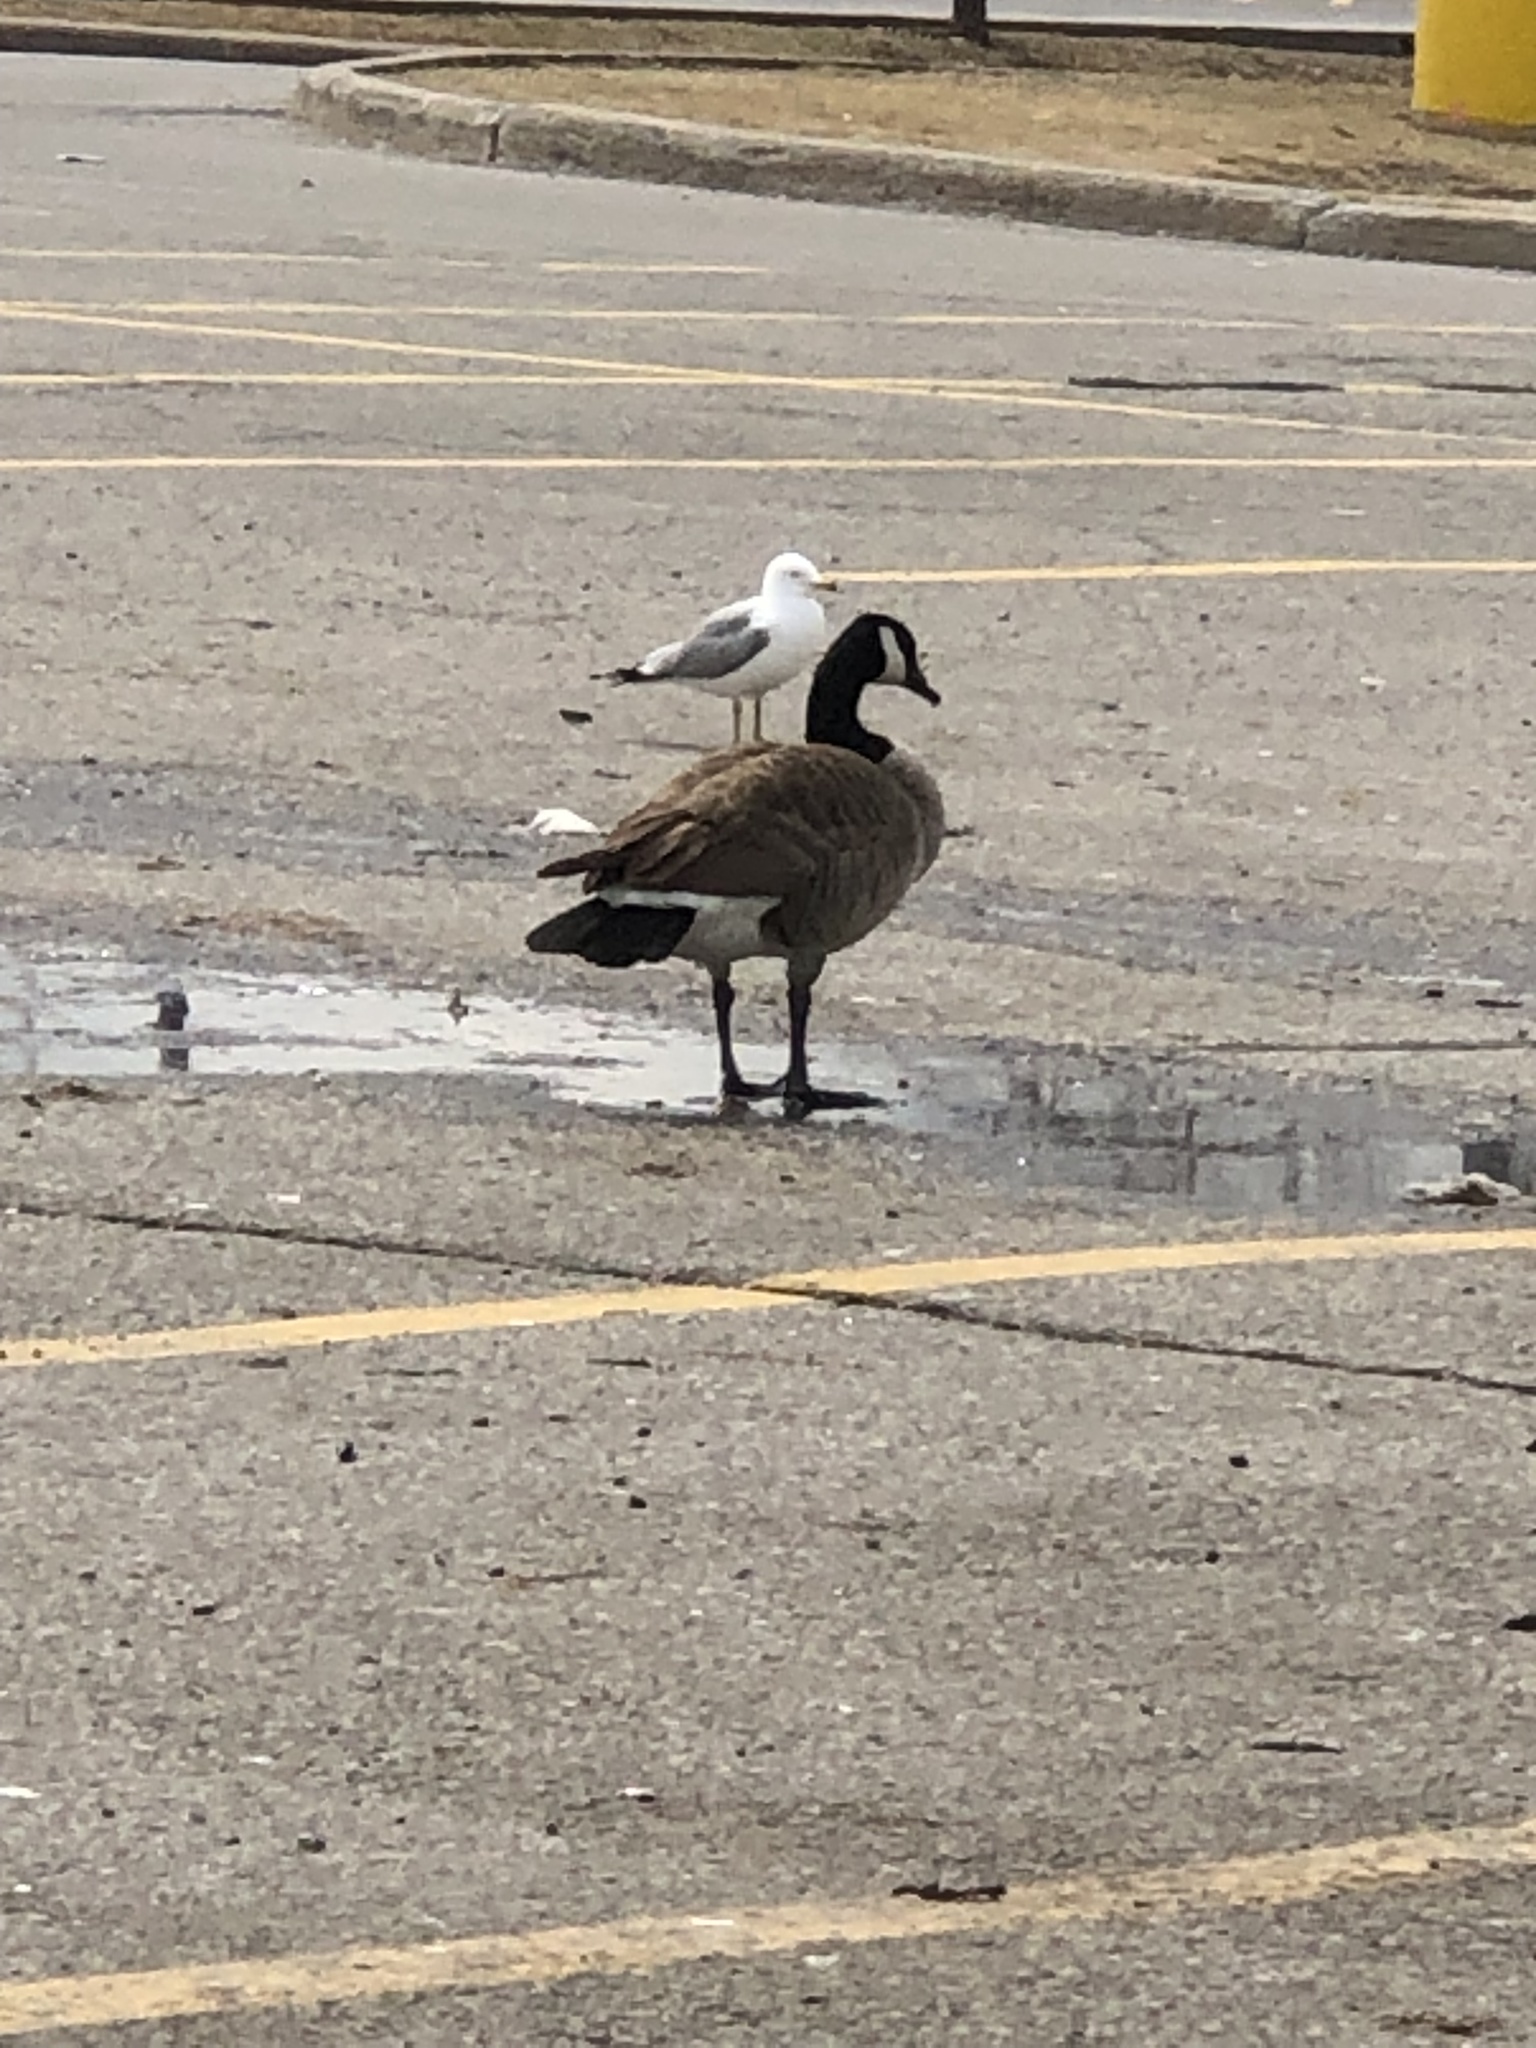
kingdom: Animalia
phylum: Chordata
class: Aves
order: Anseriformes
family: Anatidae
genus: Branta
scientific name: Branta canadensis
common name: Canada goose
